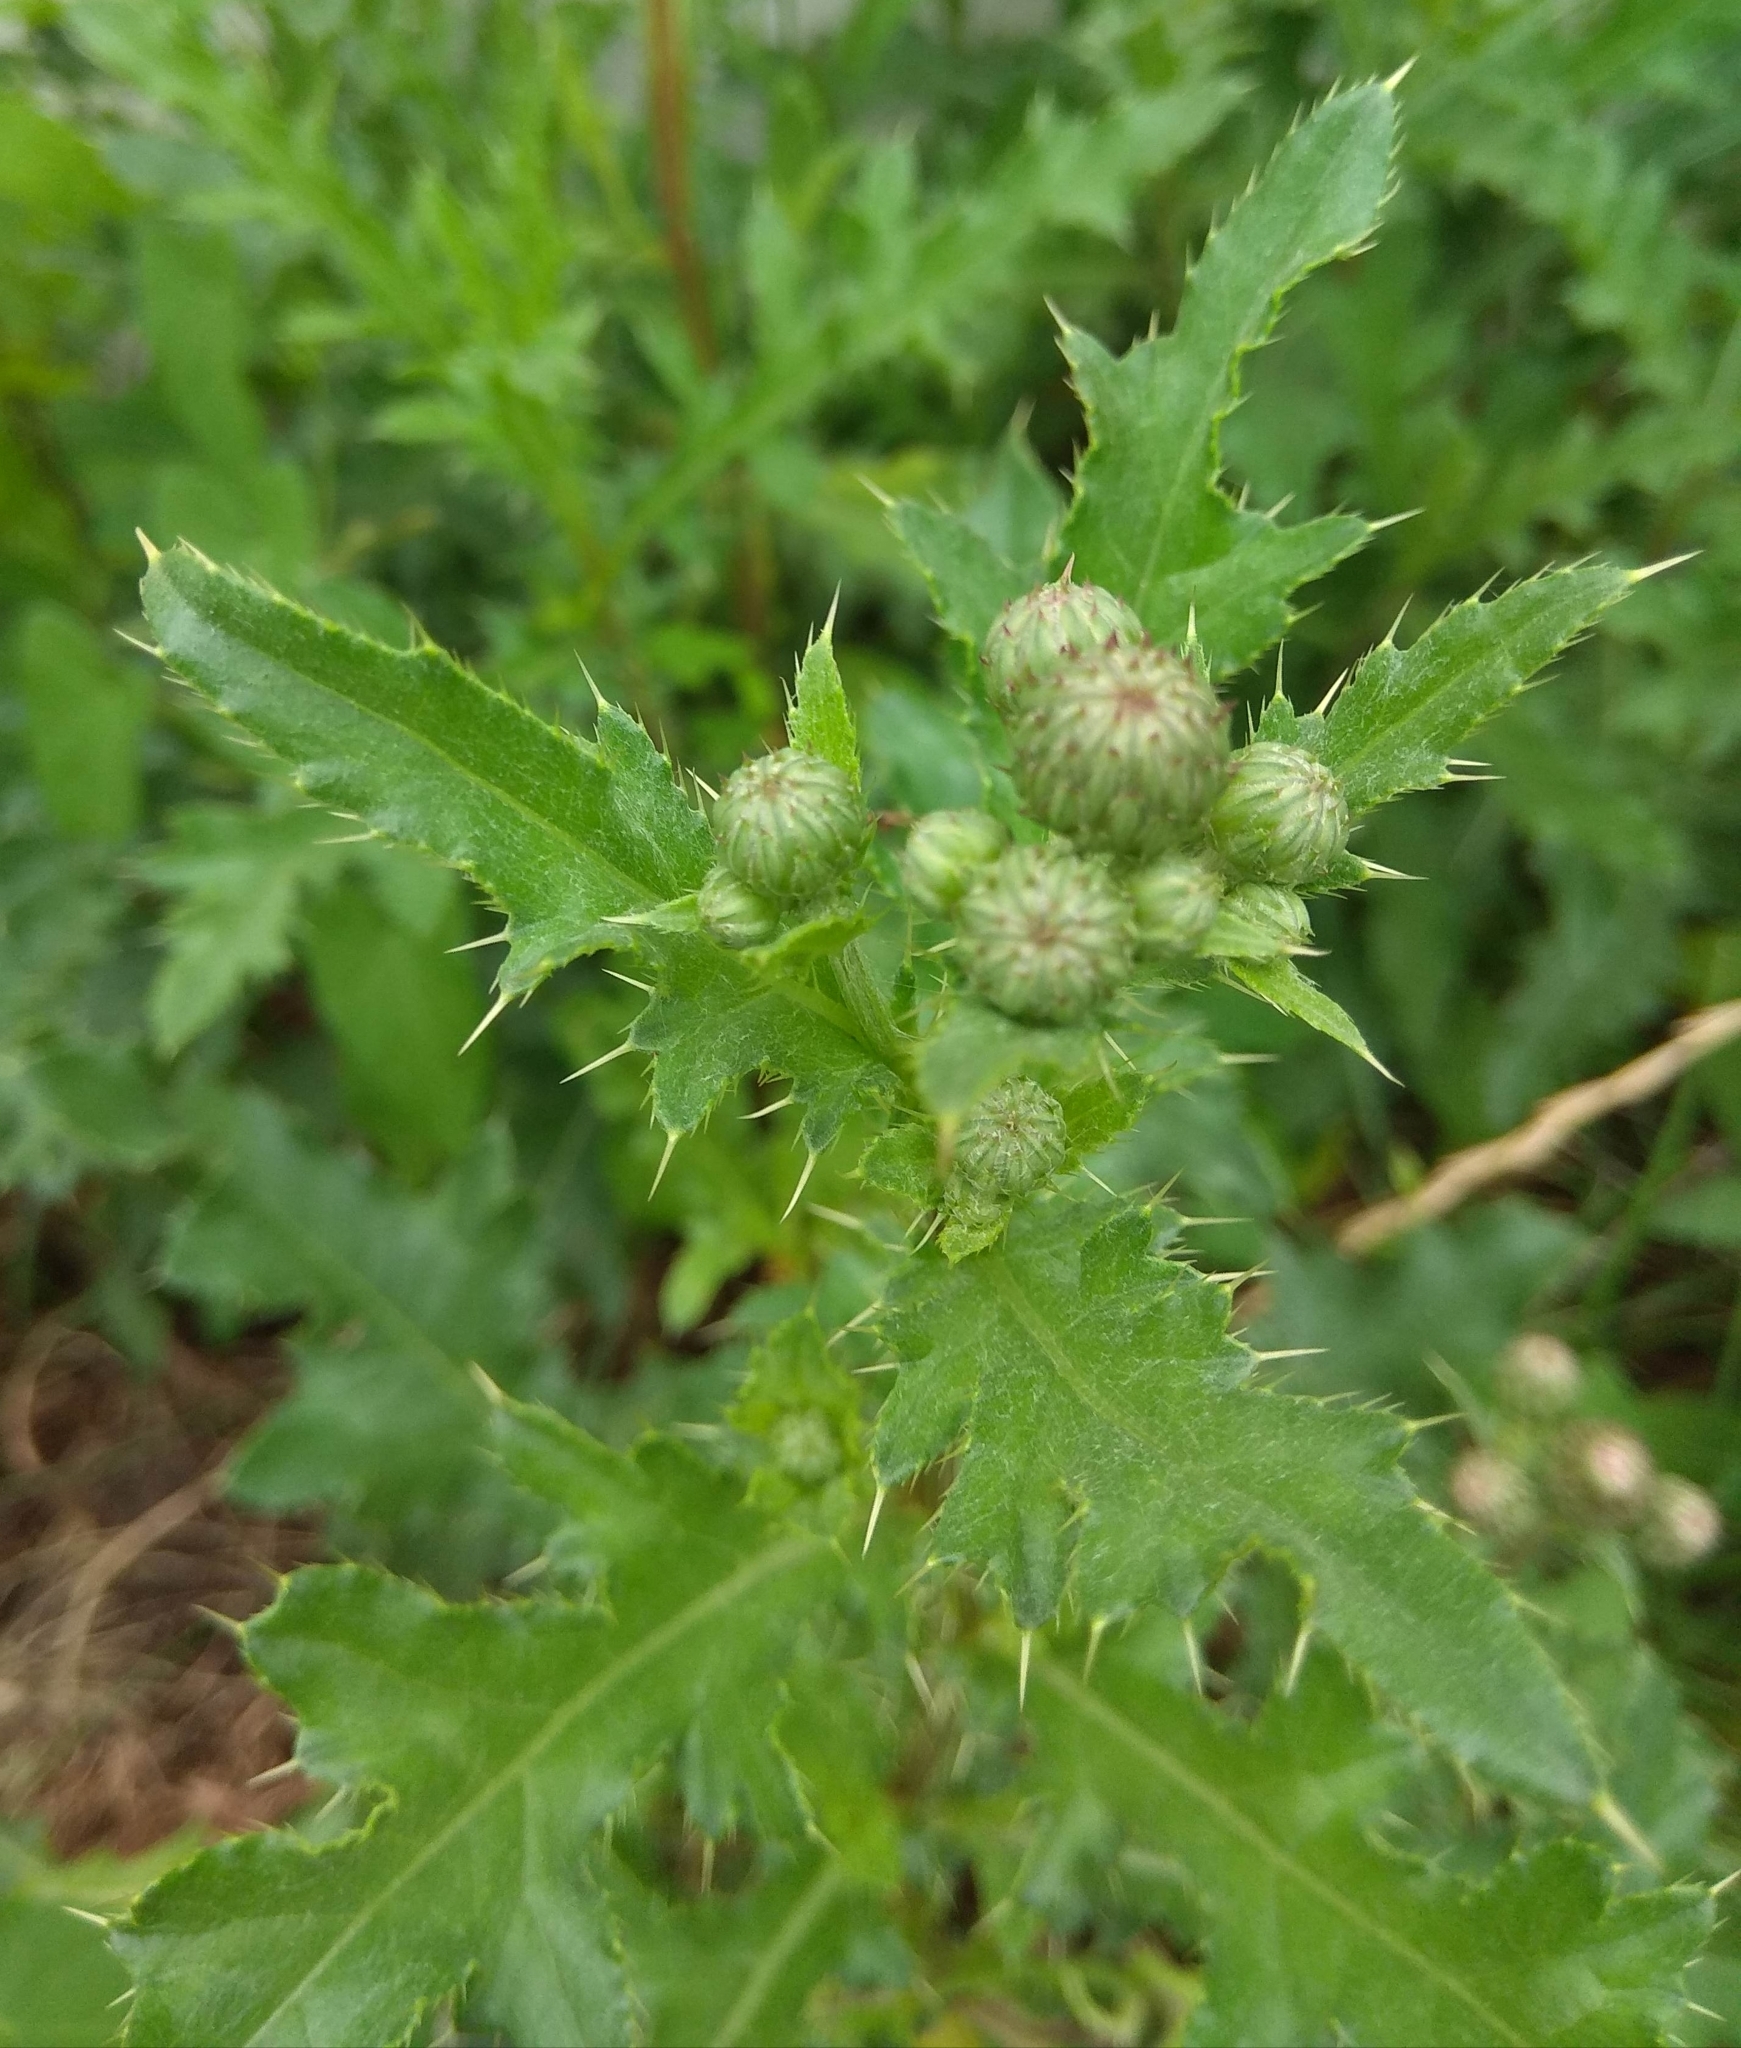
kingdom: Plantae
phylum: Tracheophyta
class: Magnoliopsida
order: Asterales
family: Asteraceae
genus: Cirsium
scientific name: Cirsium arvense
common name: Creeping thistle
